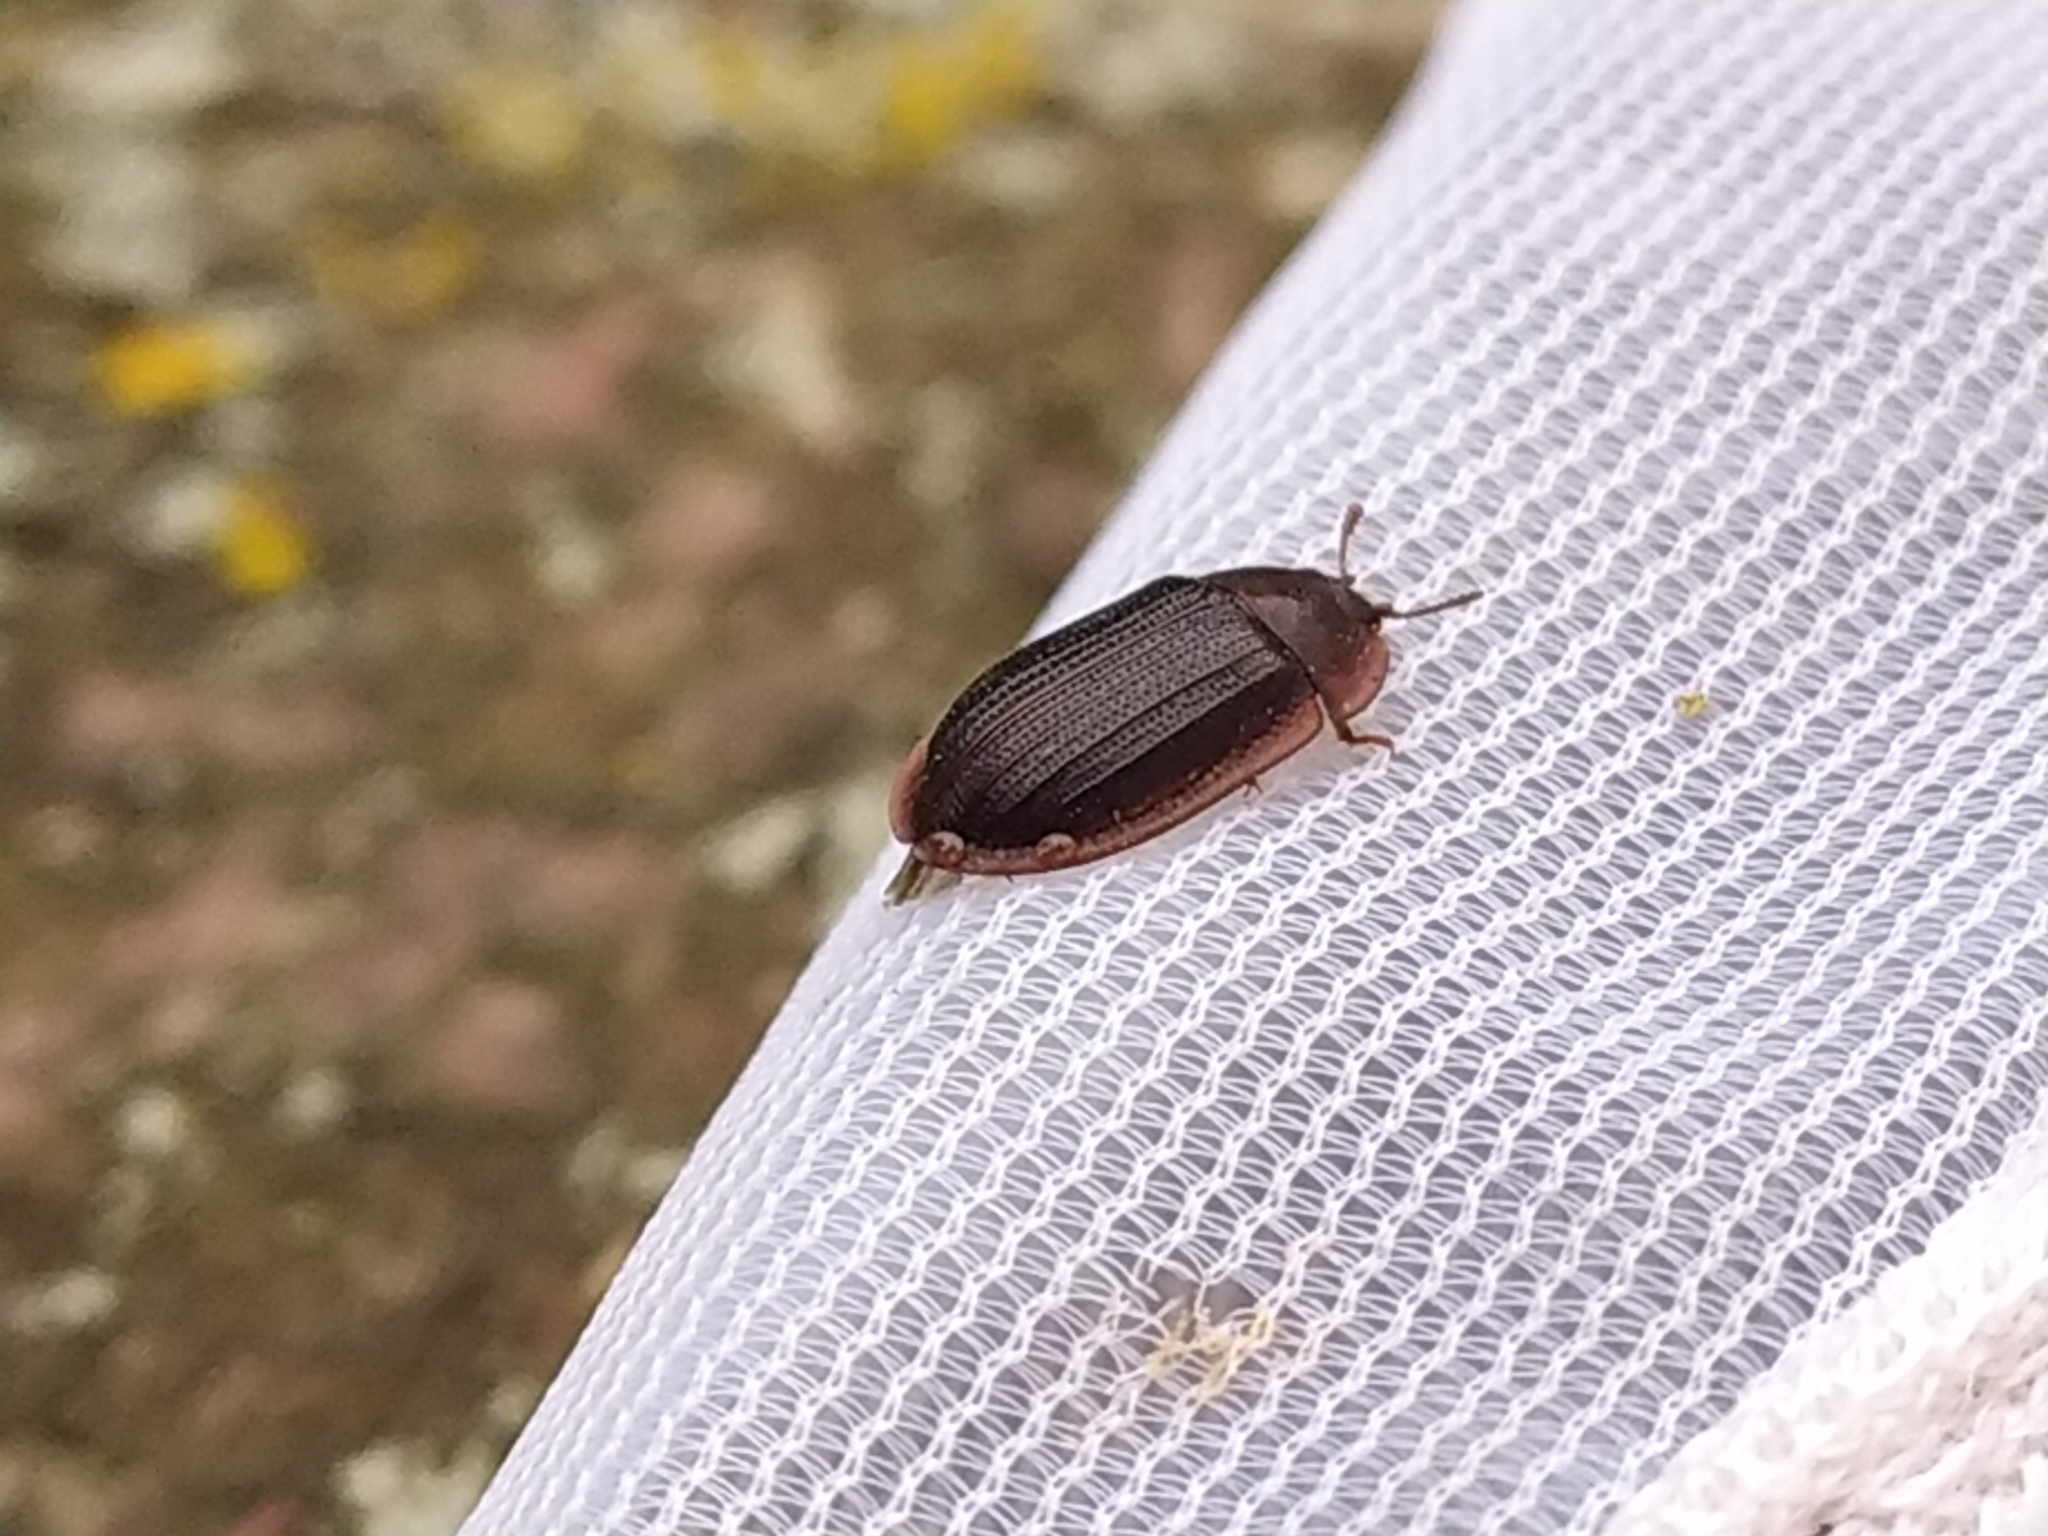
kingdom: Animalia
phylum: Arthropoda
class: Insecta
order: Coleoptera
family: Trogossitidae
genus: Peltis
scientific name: Peltis ferruginea
